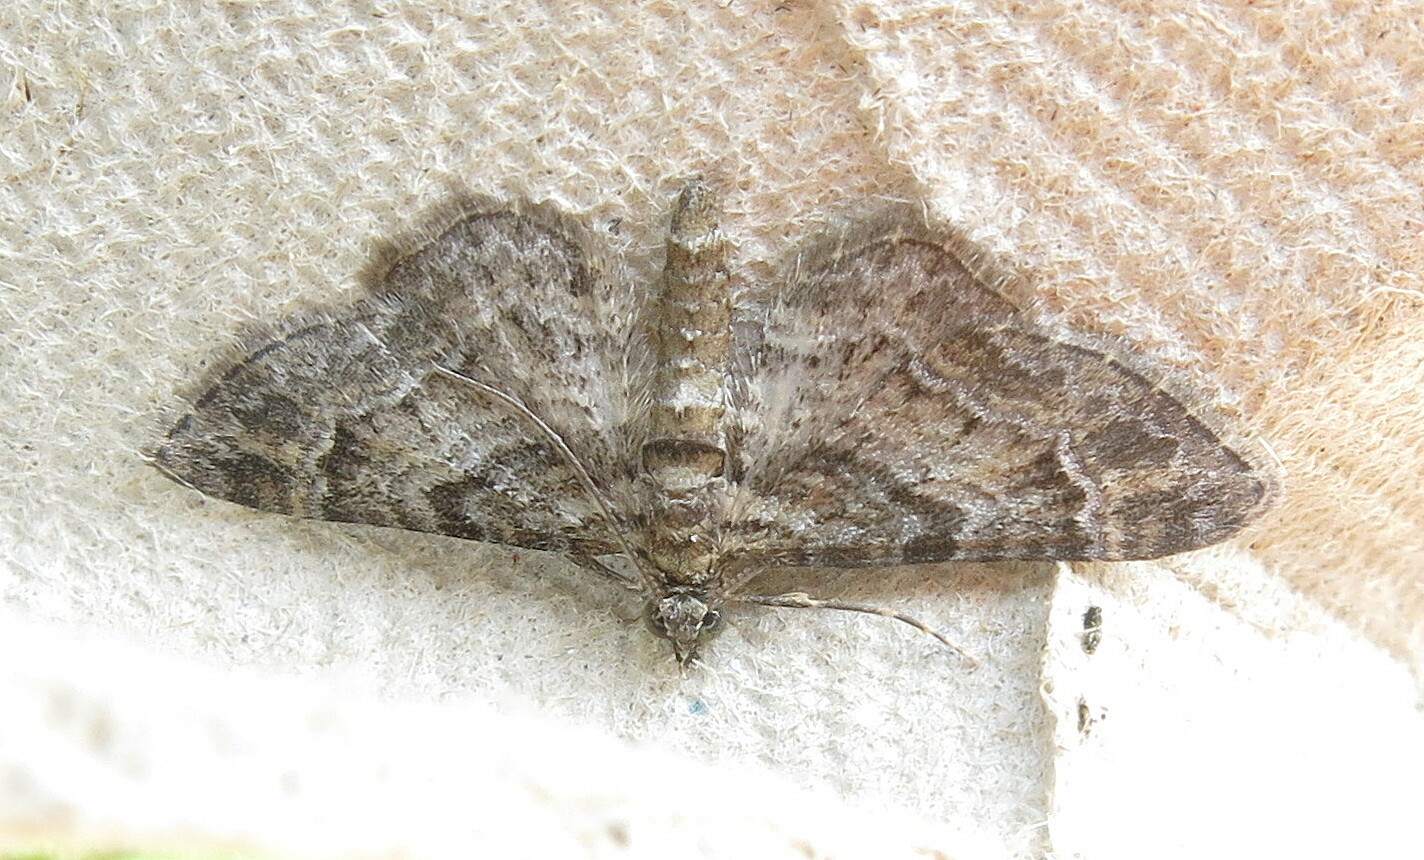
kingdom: Animalia
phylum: Arthropoda
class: Insecta
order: Lepidoptera
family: Geometridae
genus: Gymnoscelis
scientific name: Gymnoscelis rufifasciata
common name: Double-striped pug
